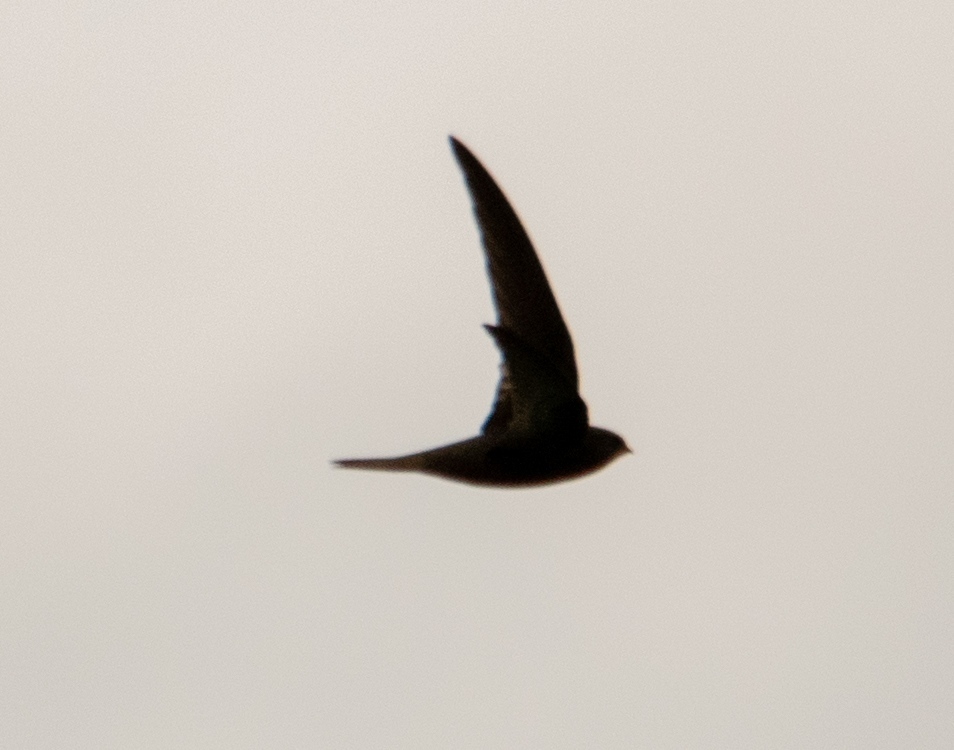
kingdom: Animalia
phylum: Chordata
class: Aves
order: Apodiformes
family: Apodidae
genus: Apus
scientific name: Apus apus
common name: Common swift
